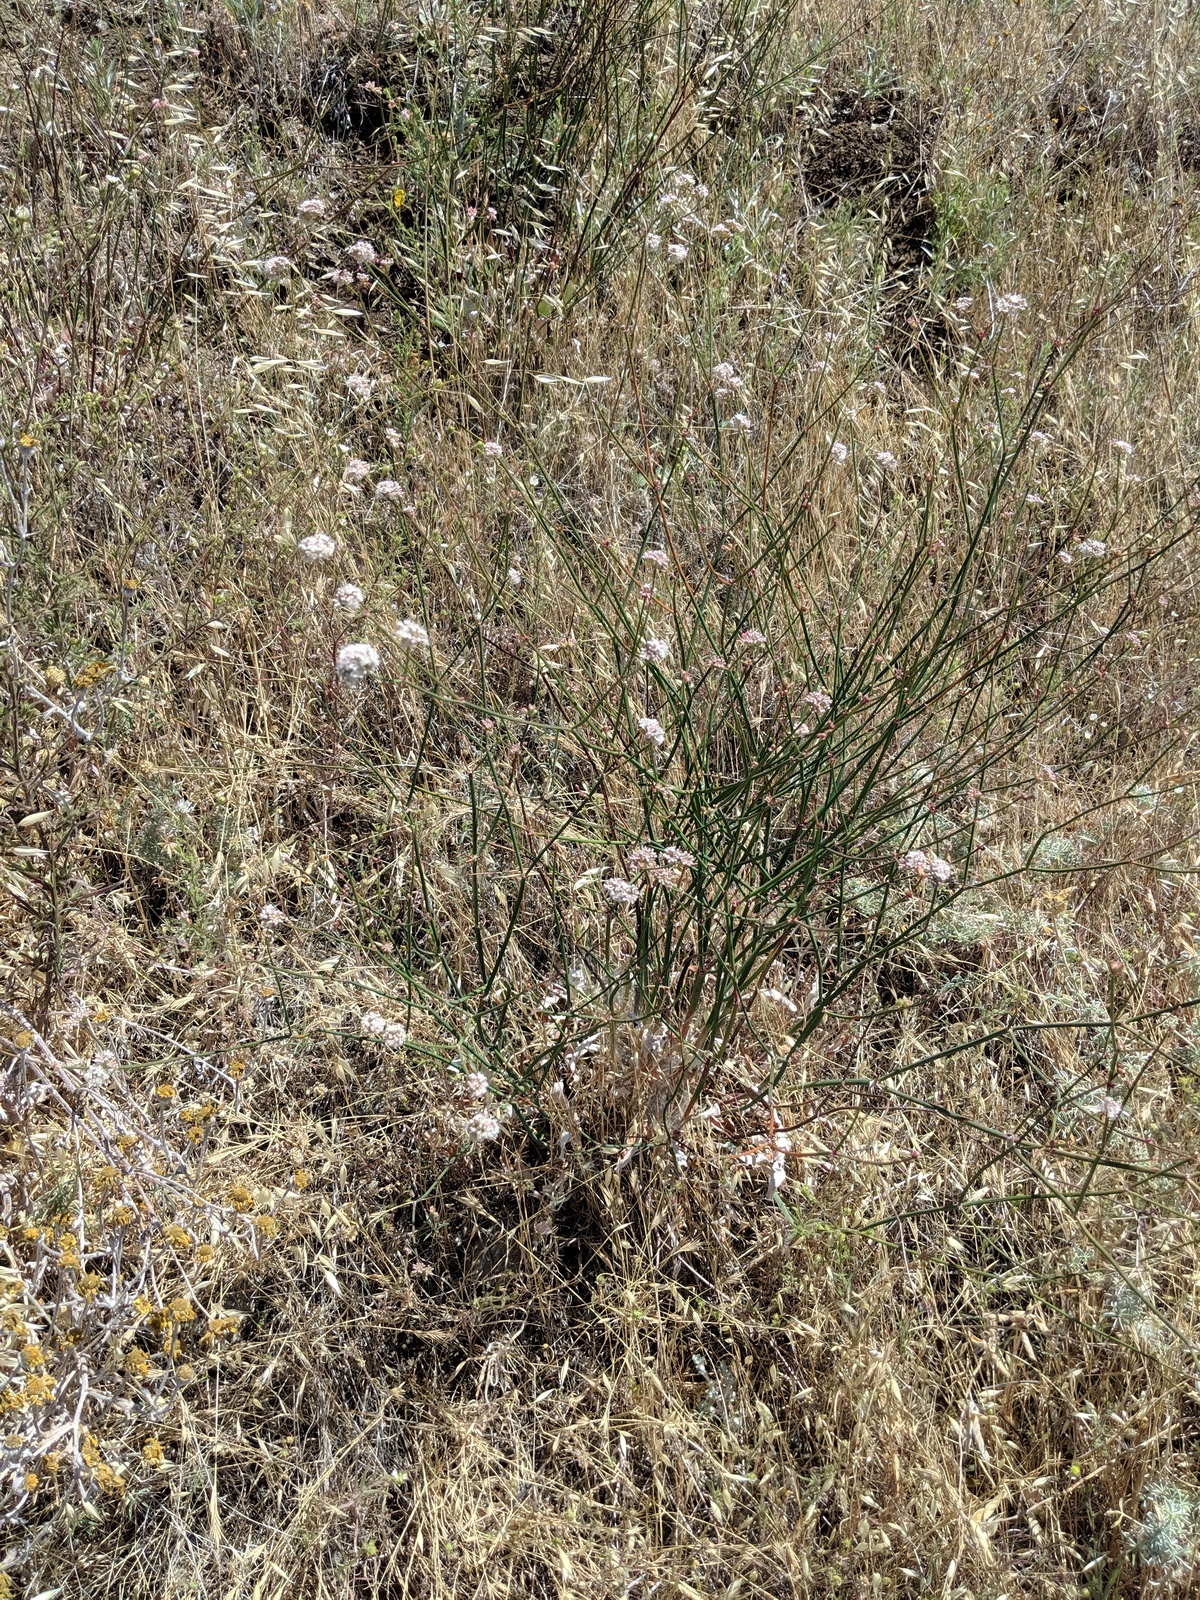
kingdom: Plantae
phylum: Tracheophyta
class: Magnoliopsida
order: Caryophyllales
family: Polygonaceae
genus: Eriogonum
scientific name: Eriogonum nudum
